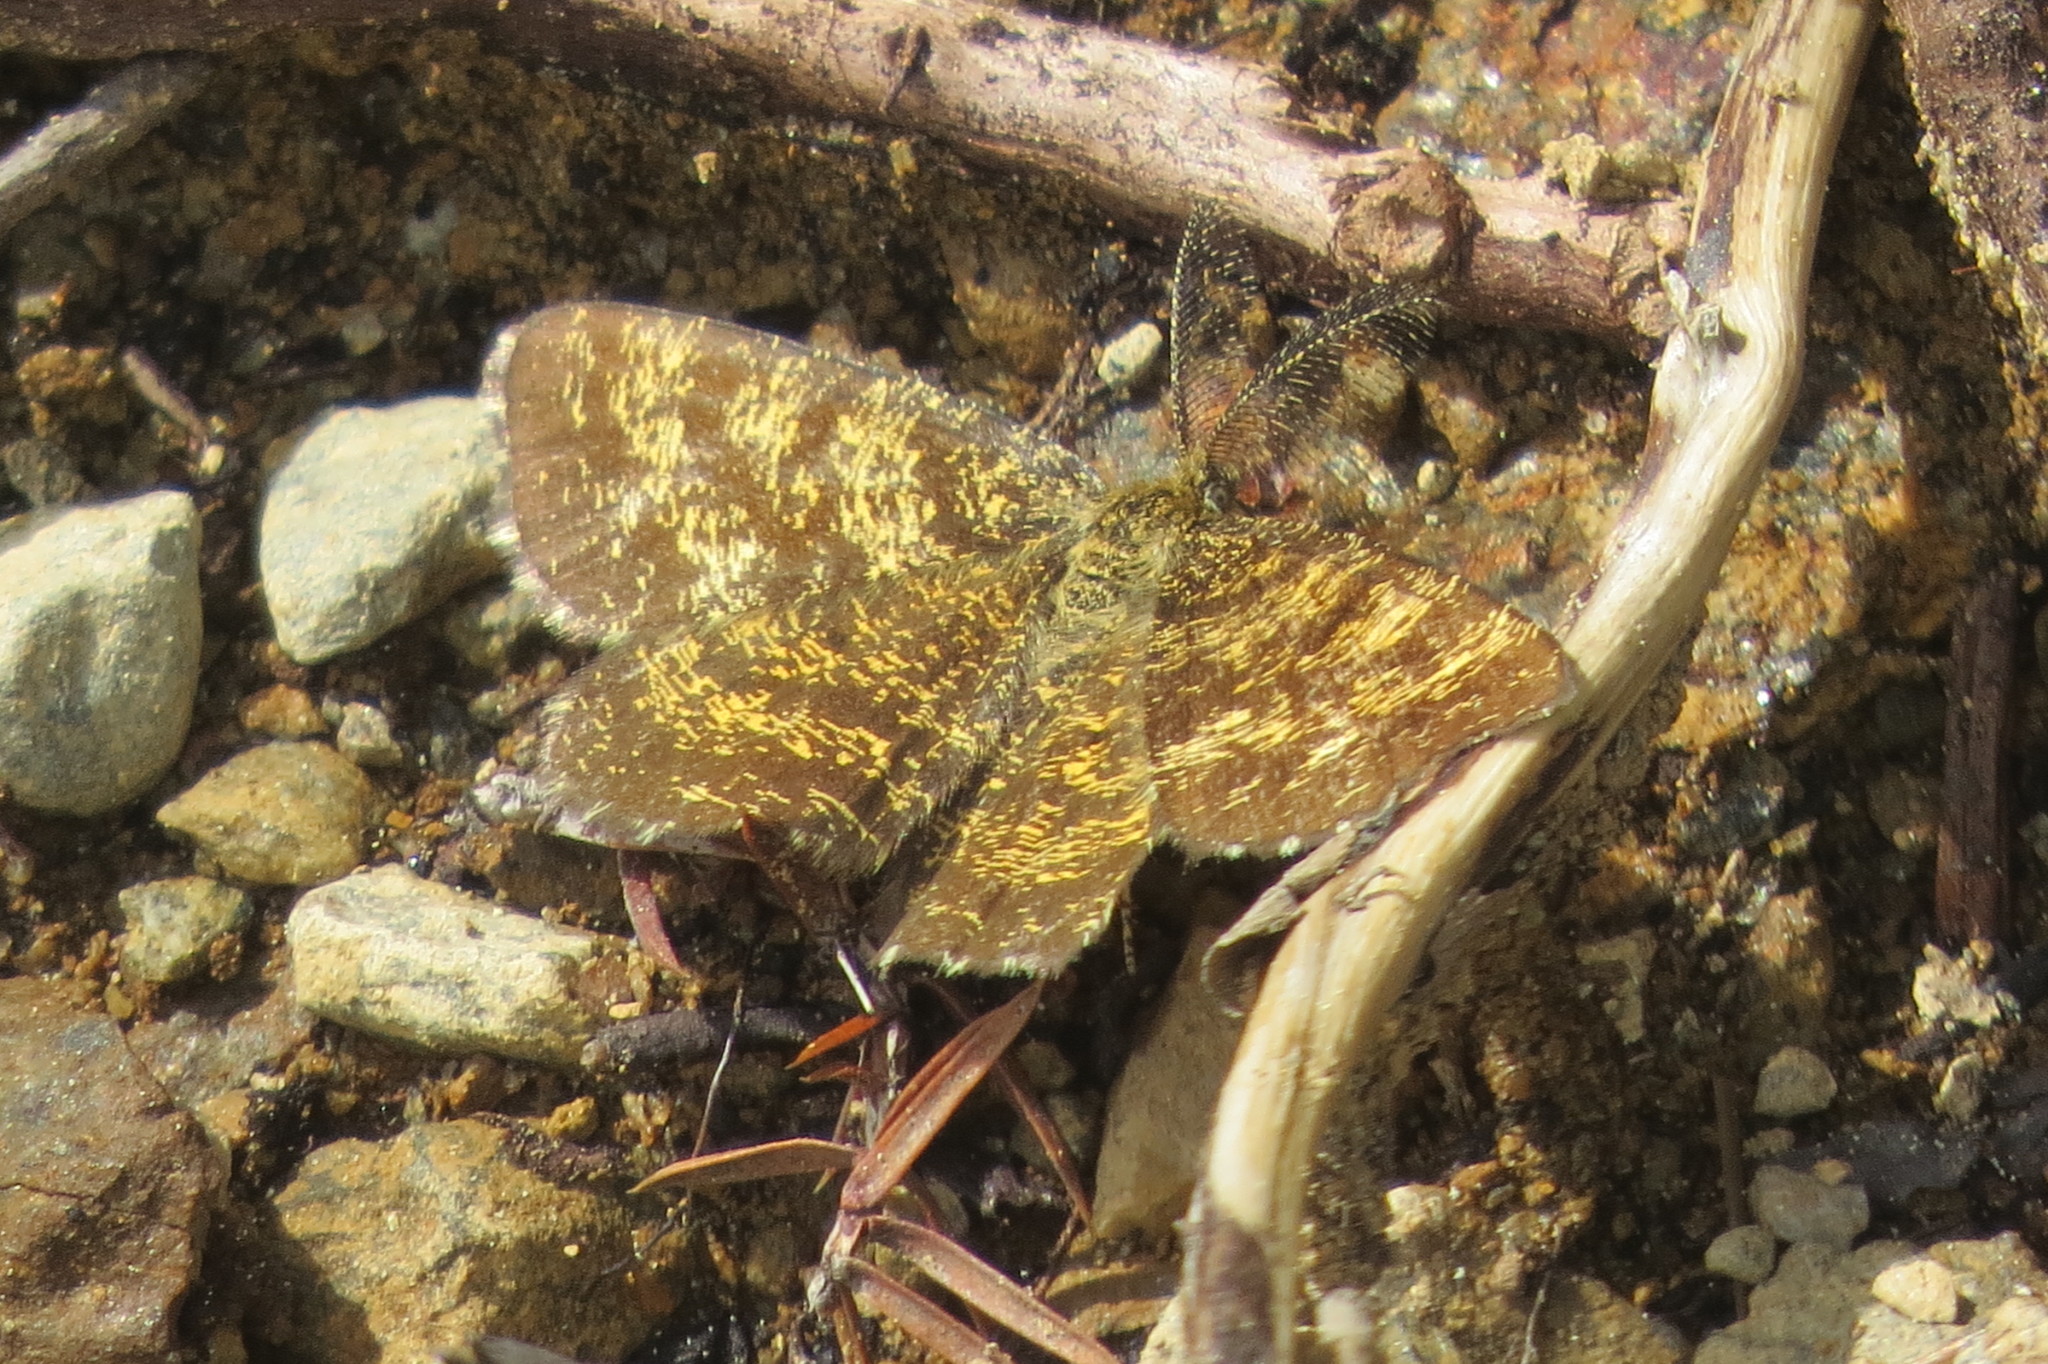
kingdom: Animalia
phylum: Arthropoda
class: Insecta
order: Lepidoptera
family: Geometridae
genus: Ematurga
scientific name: Ematurga atomaria
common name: Common heath
